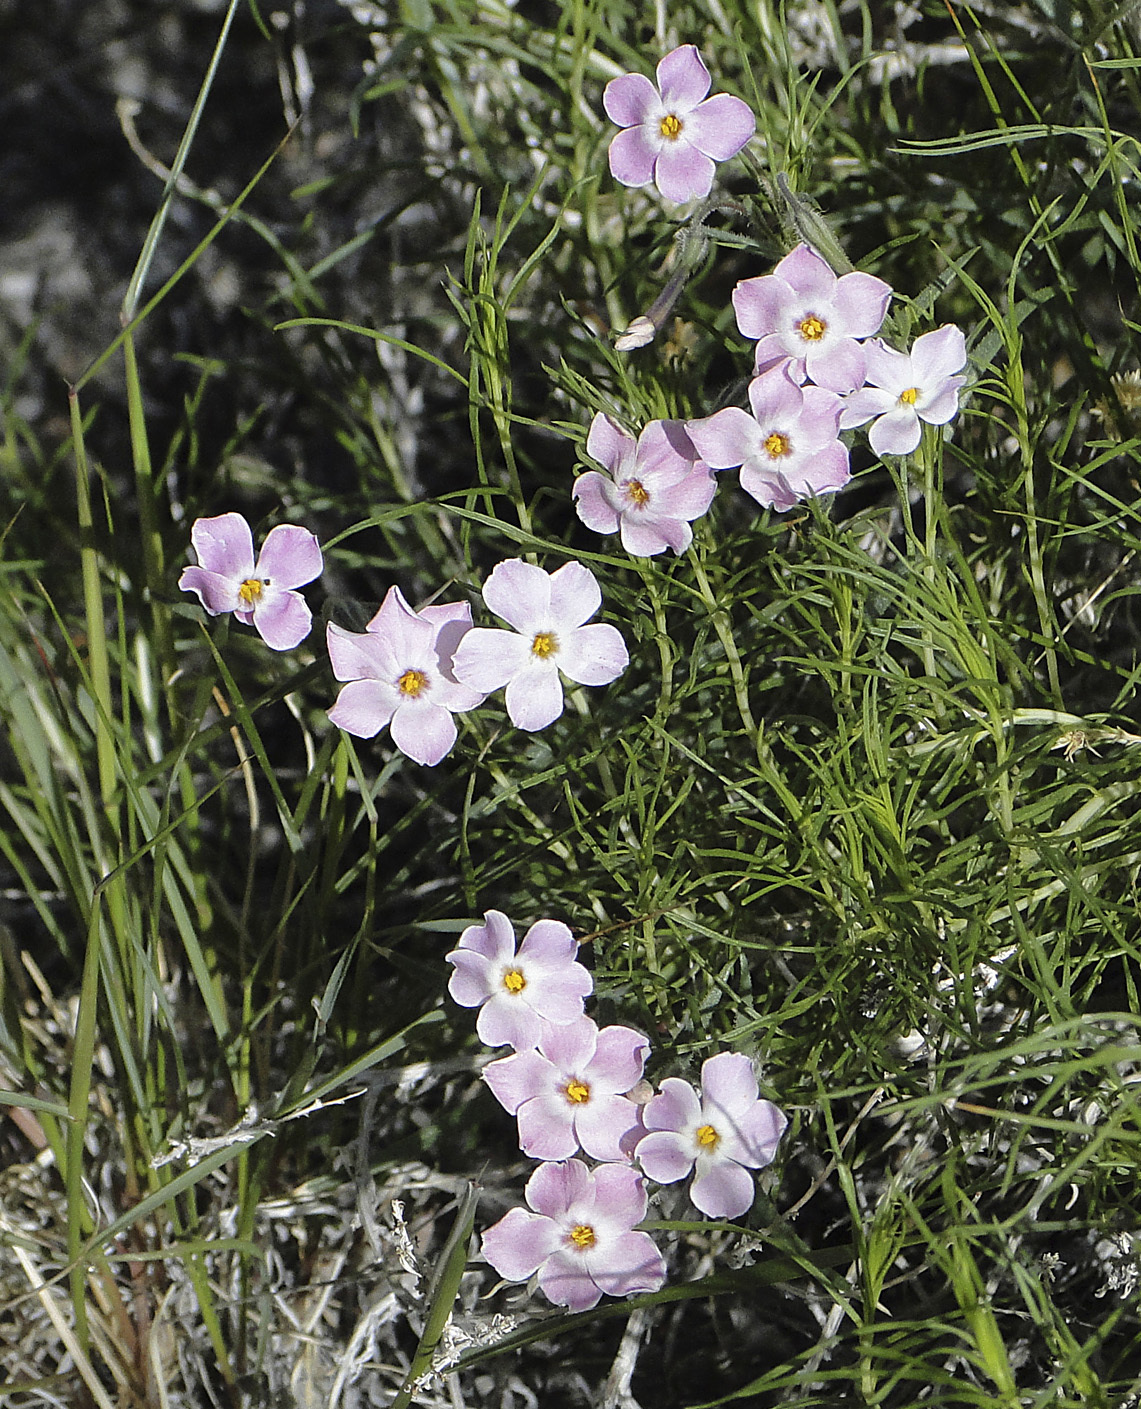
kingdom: Plantae
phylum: Tracheophyta
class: Magnoliopsida
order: Ericales
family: Polemoniaceae
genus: Phlox
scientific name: Phlox longifolia
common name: Longleaf phlox
